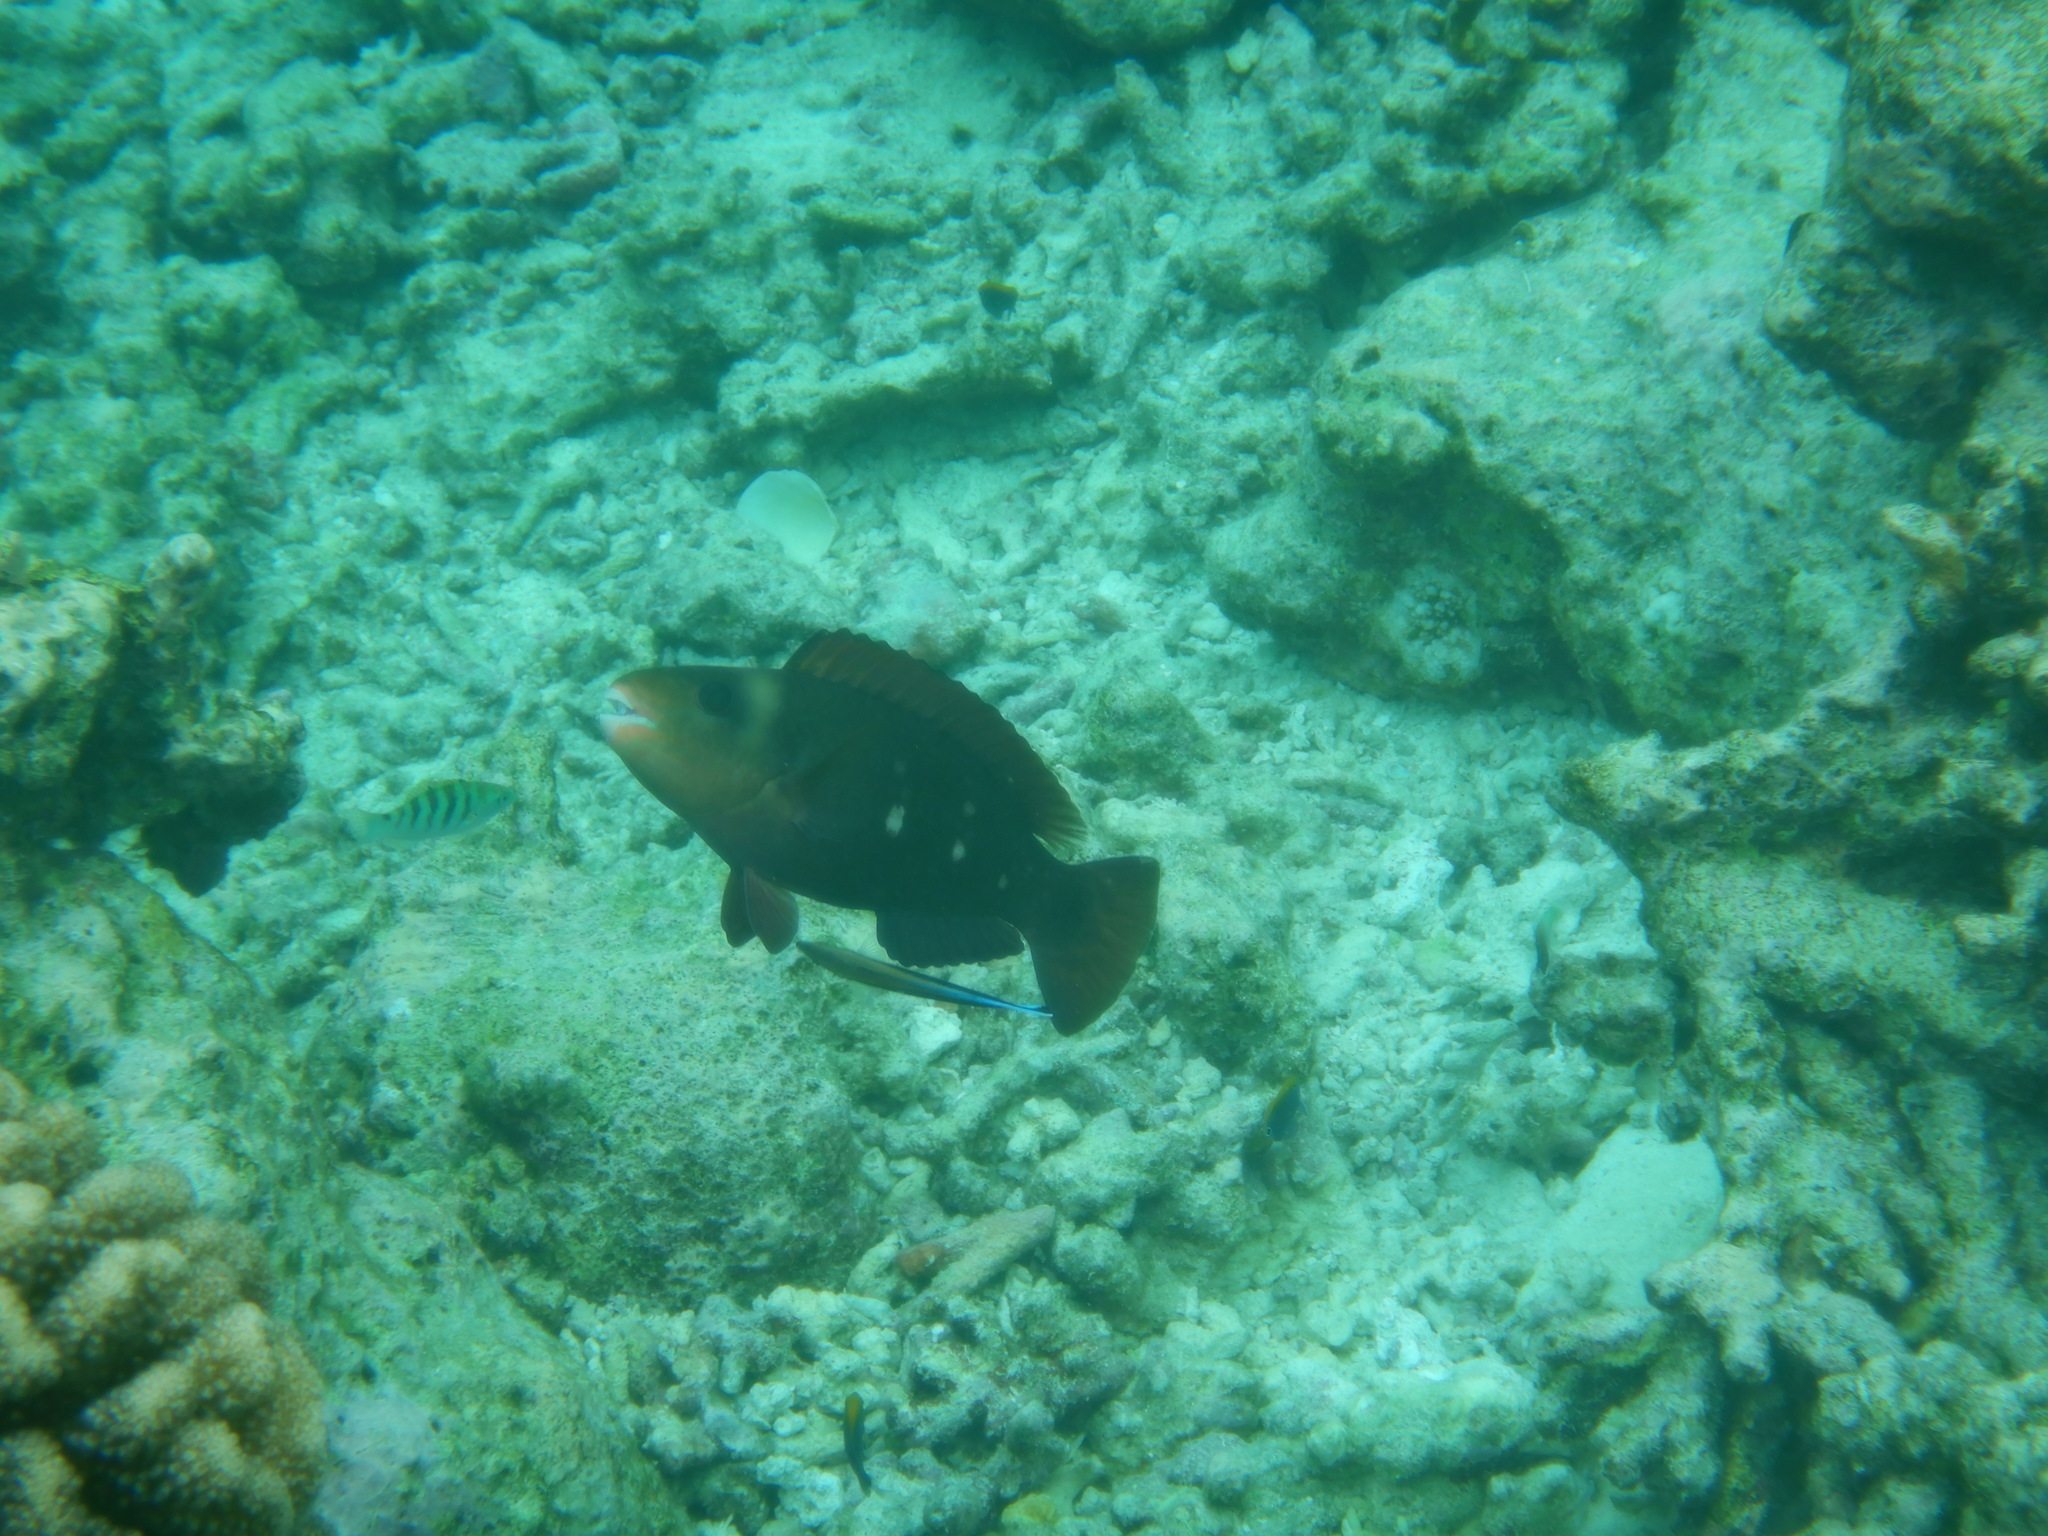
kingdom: Animalia
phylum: Chordata
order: Perciformes
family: Scaridae
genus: Chlorurus
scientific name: Chlorurus sordidus
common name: Bullethead parrotfish
